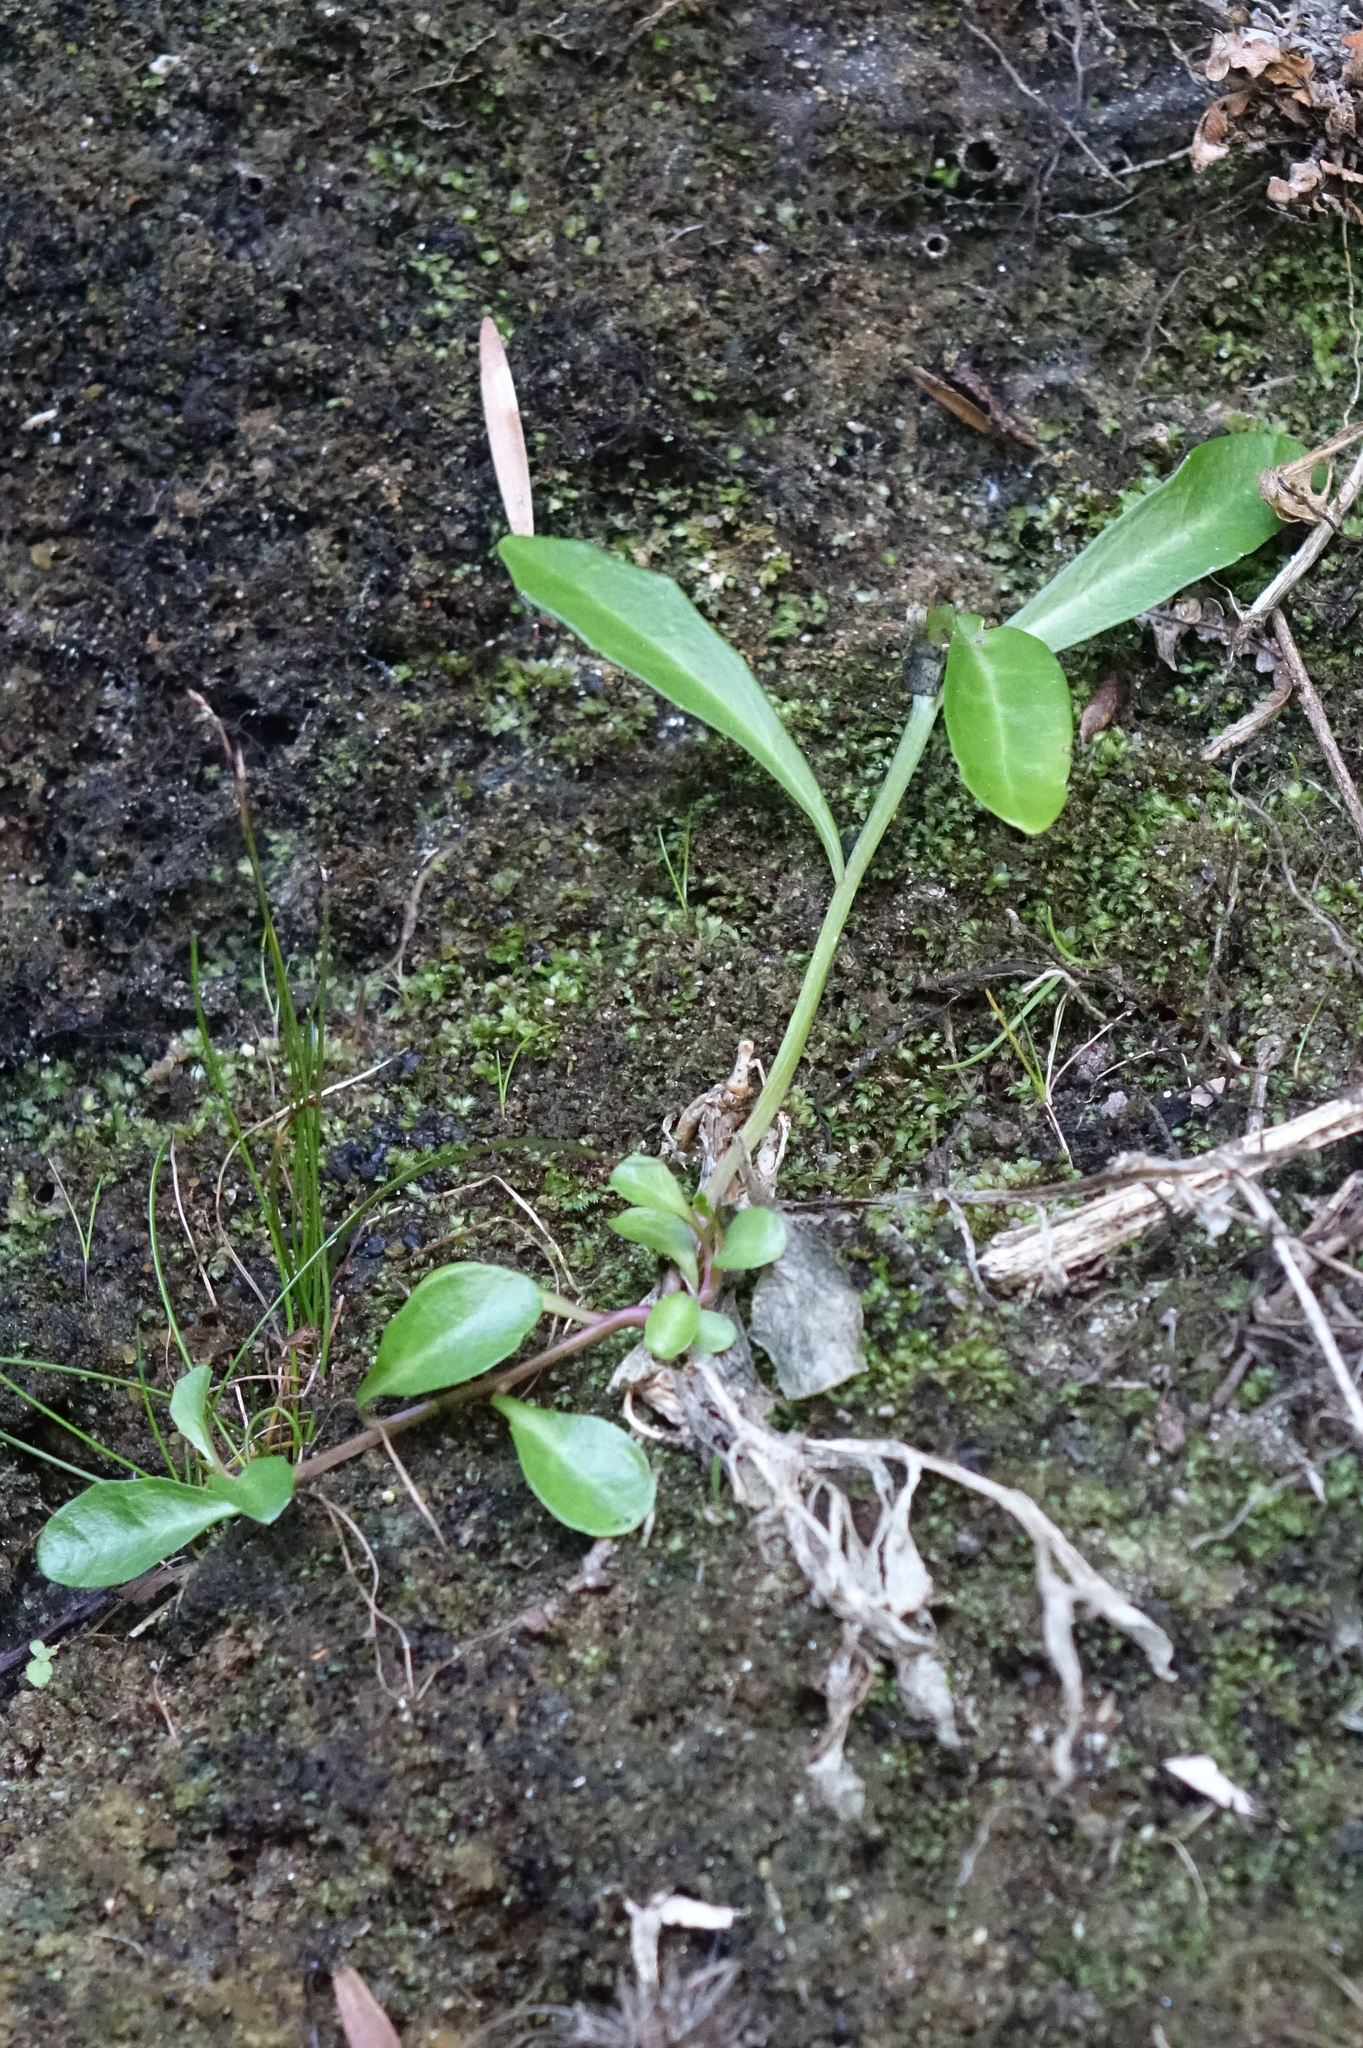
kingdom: Plantae
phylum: Tracheophyta
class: Magnoliopsida
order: Asterales
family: Campanulaceae
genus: Lobelia
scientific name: Lobelia anceps
